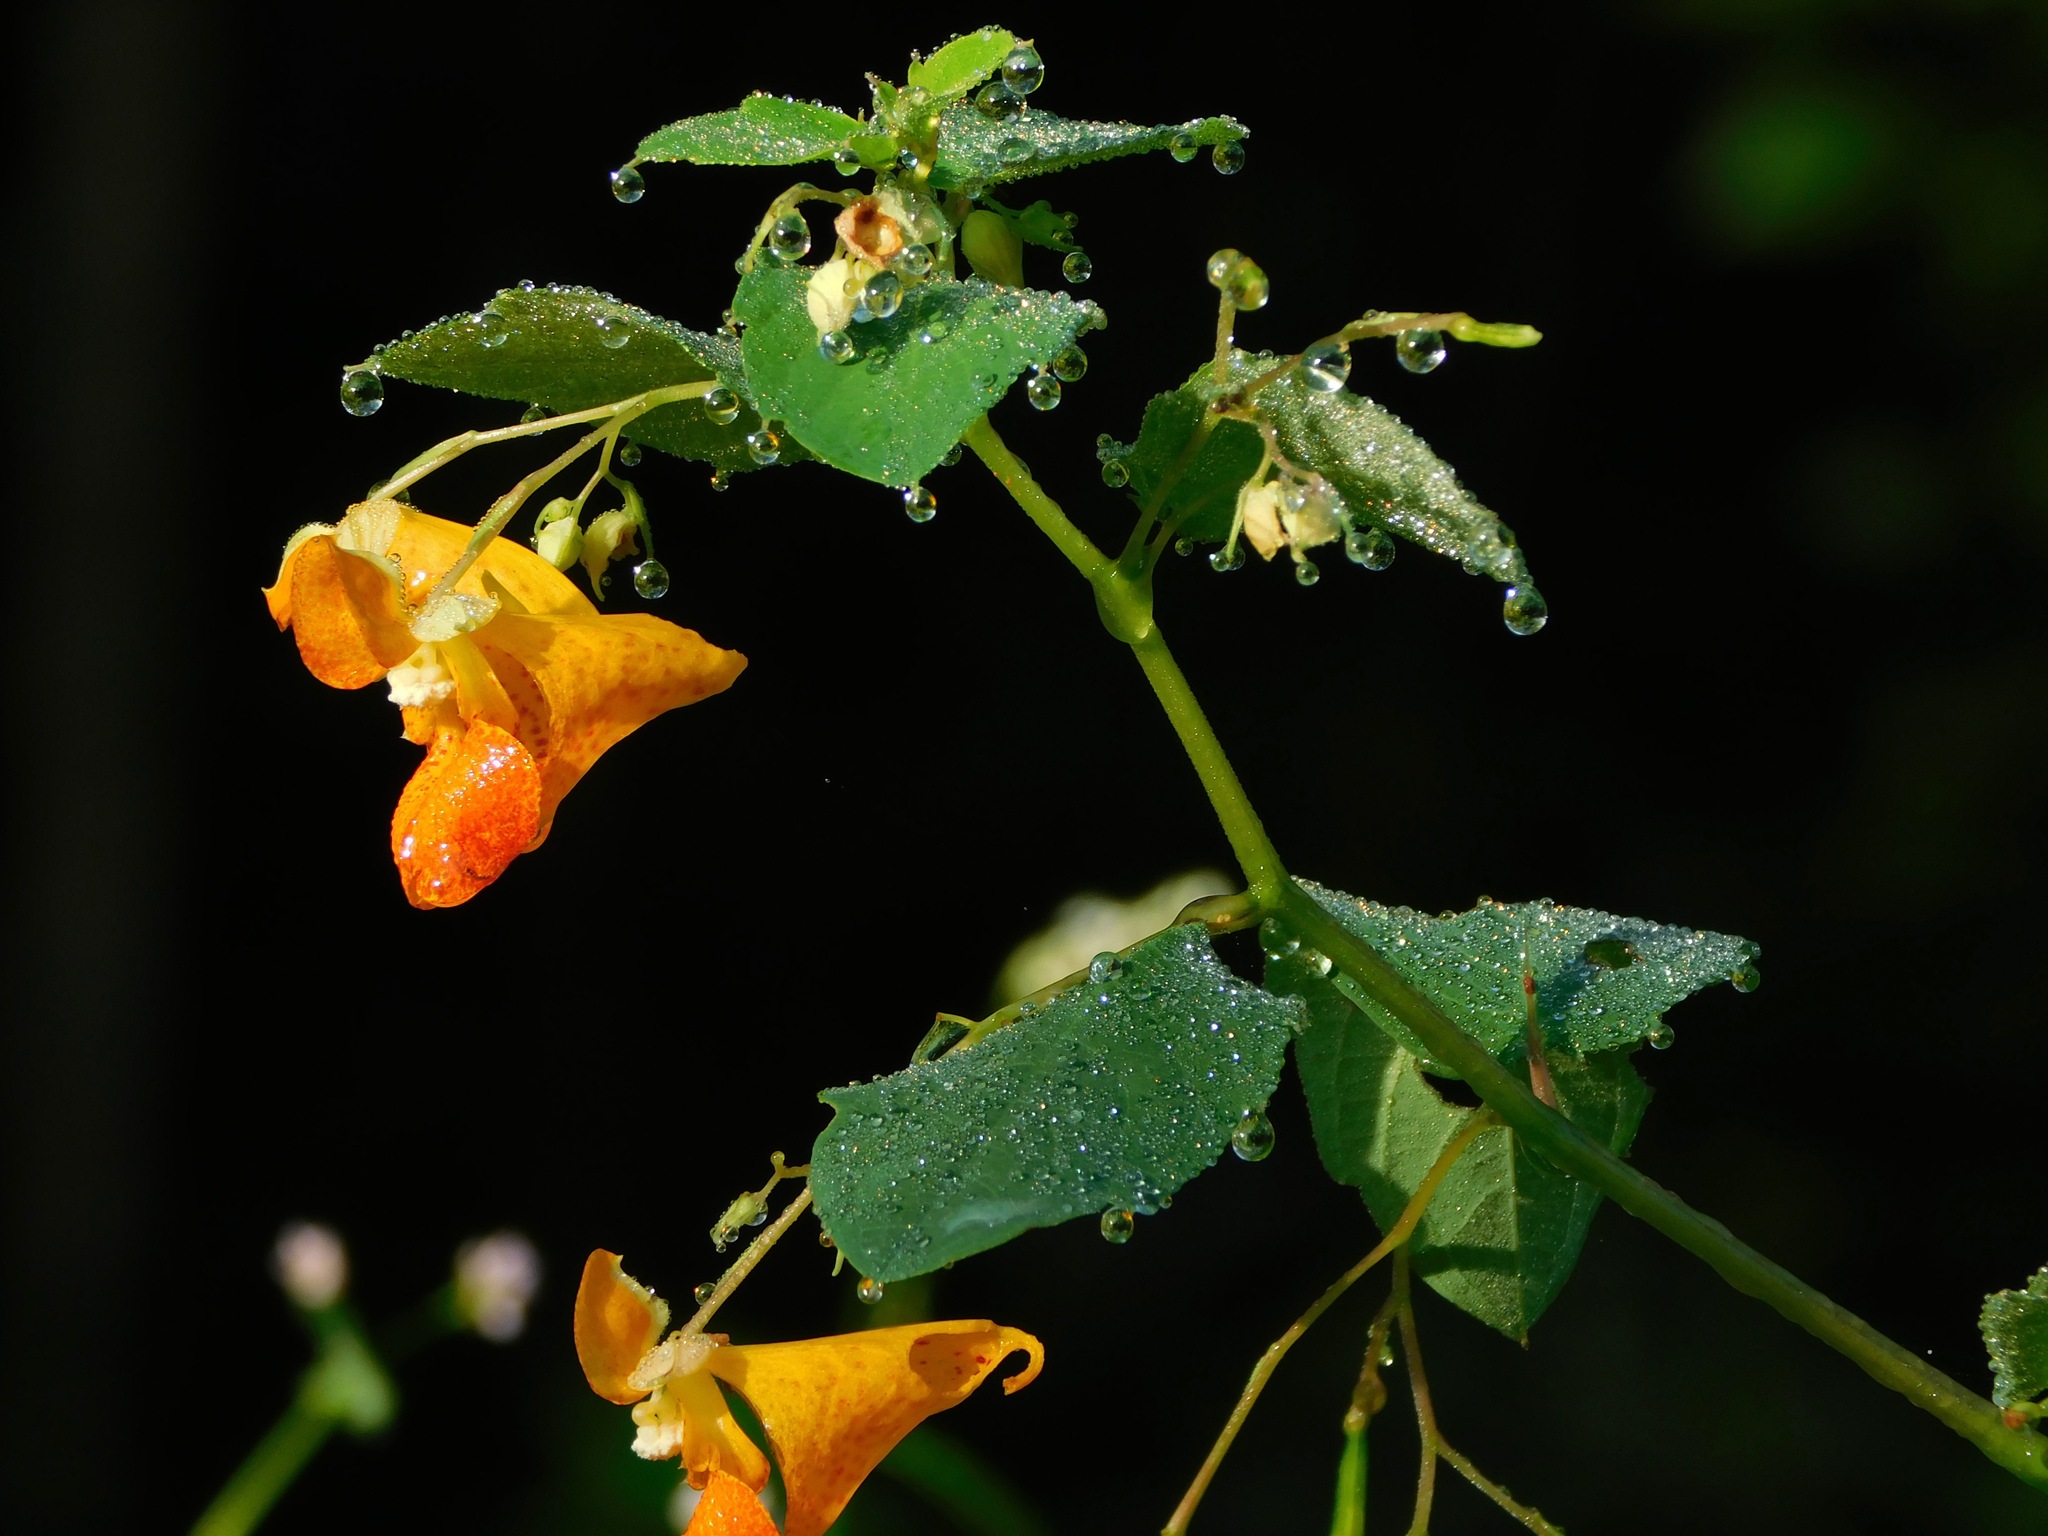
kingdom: Plantae
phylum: Tracheophyta
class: Magnoliopsida
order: Ericales
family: Balsaminaceae
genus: Impatiens
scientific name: Impatiens capensis
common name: Orange balsam
